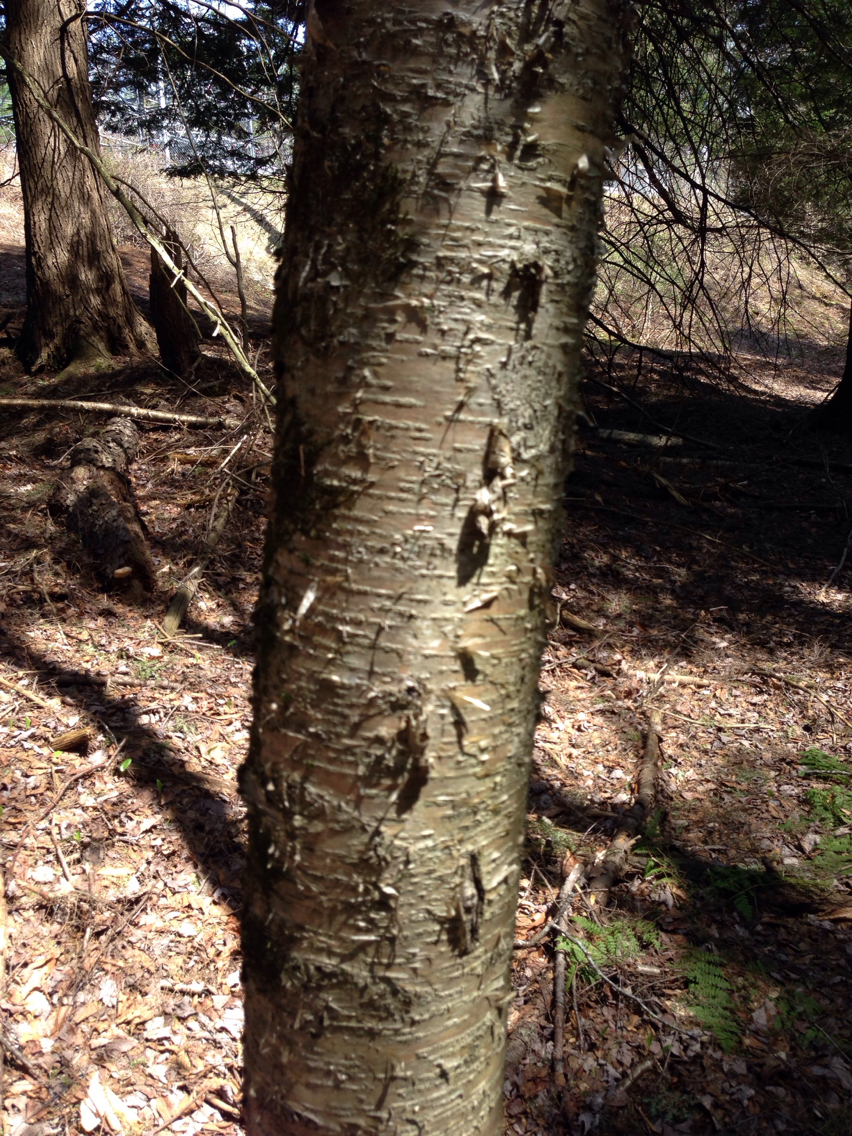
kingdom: Plantae
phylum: Tracheophyta
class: Magnoliopsida
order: Fagales
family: Betulaceae
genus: Betula
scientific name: Betula alleghaniensis
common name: Yellow birch
